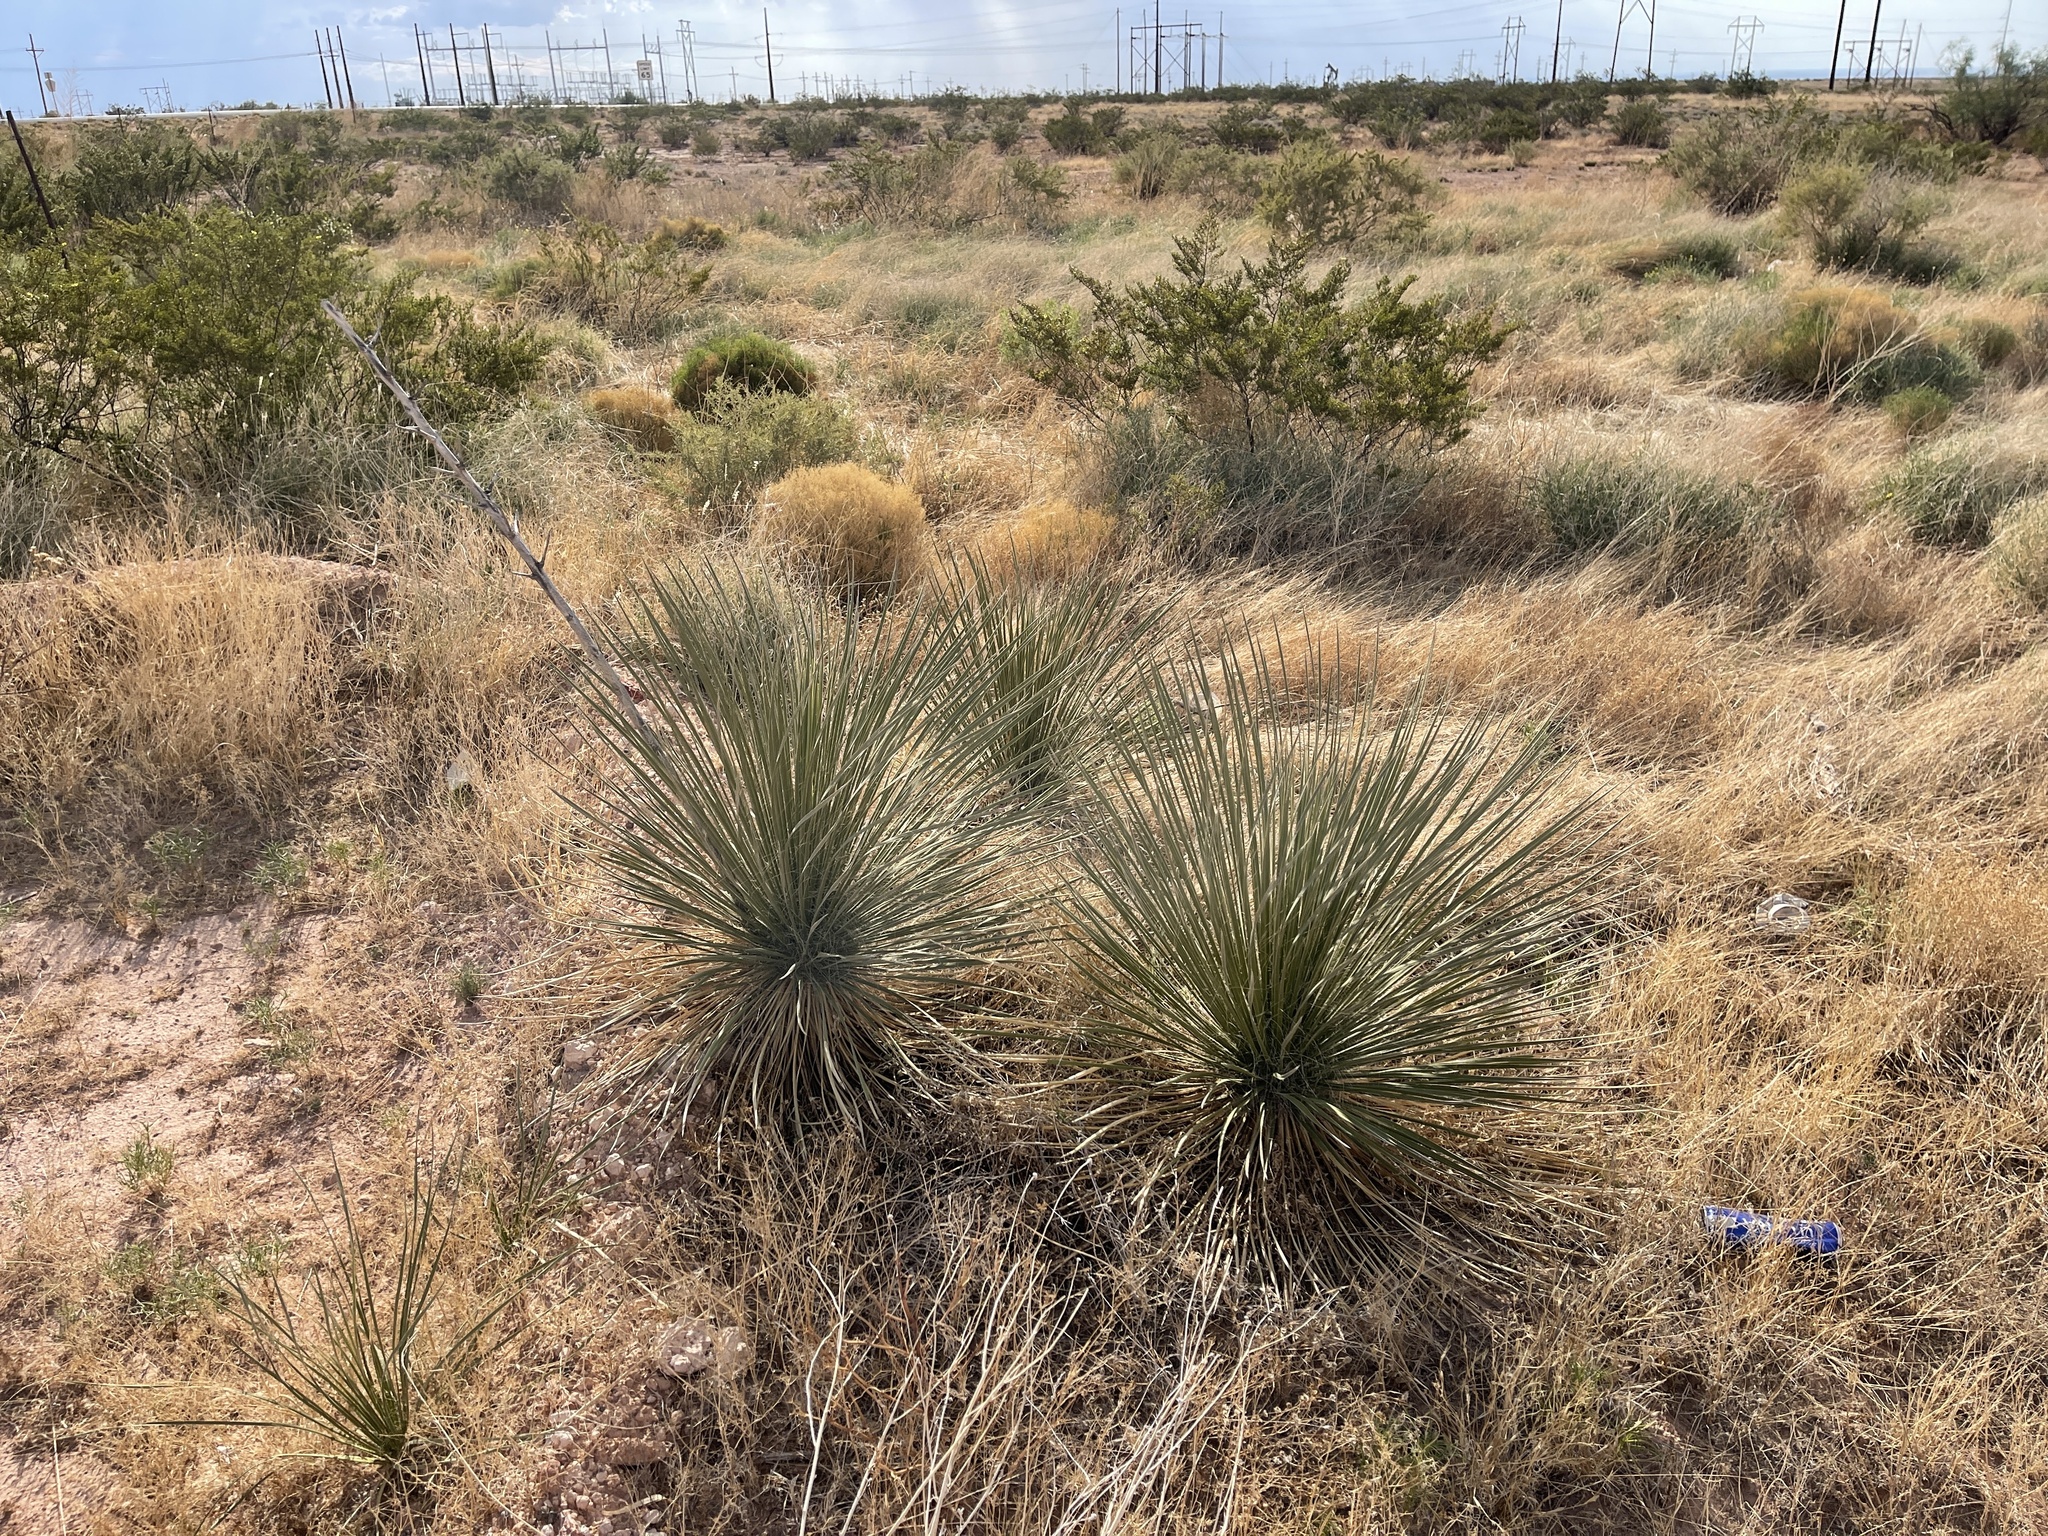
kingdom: Plantae
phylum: Tracheophyta
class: Liliopsida
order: Asparagales
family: Asparagaceae
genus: Yucca
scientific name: Yucca elata
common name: Palmella
